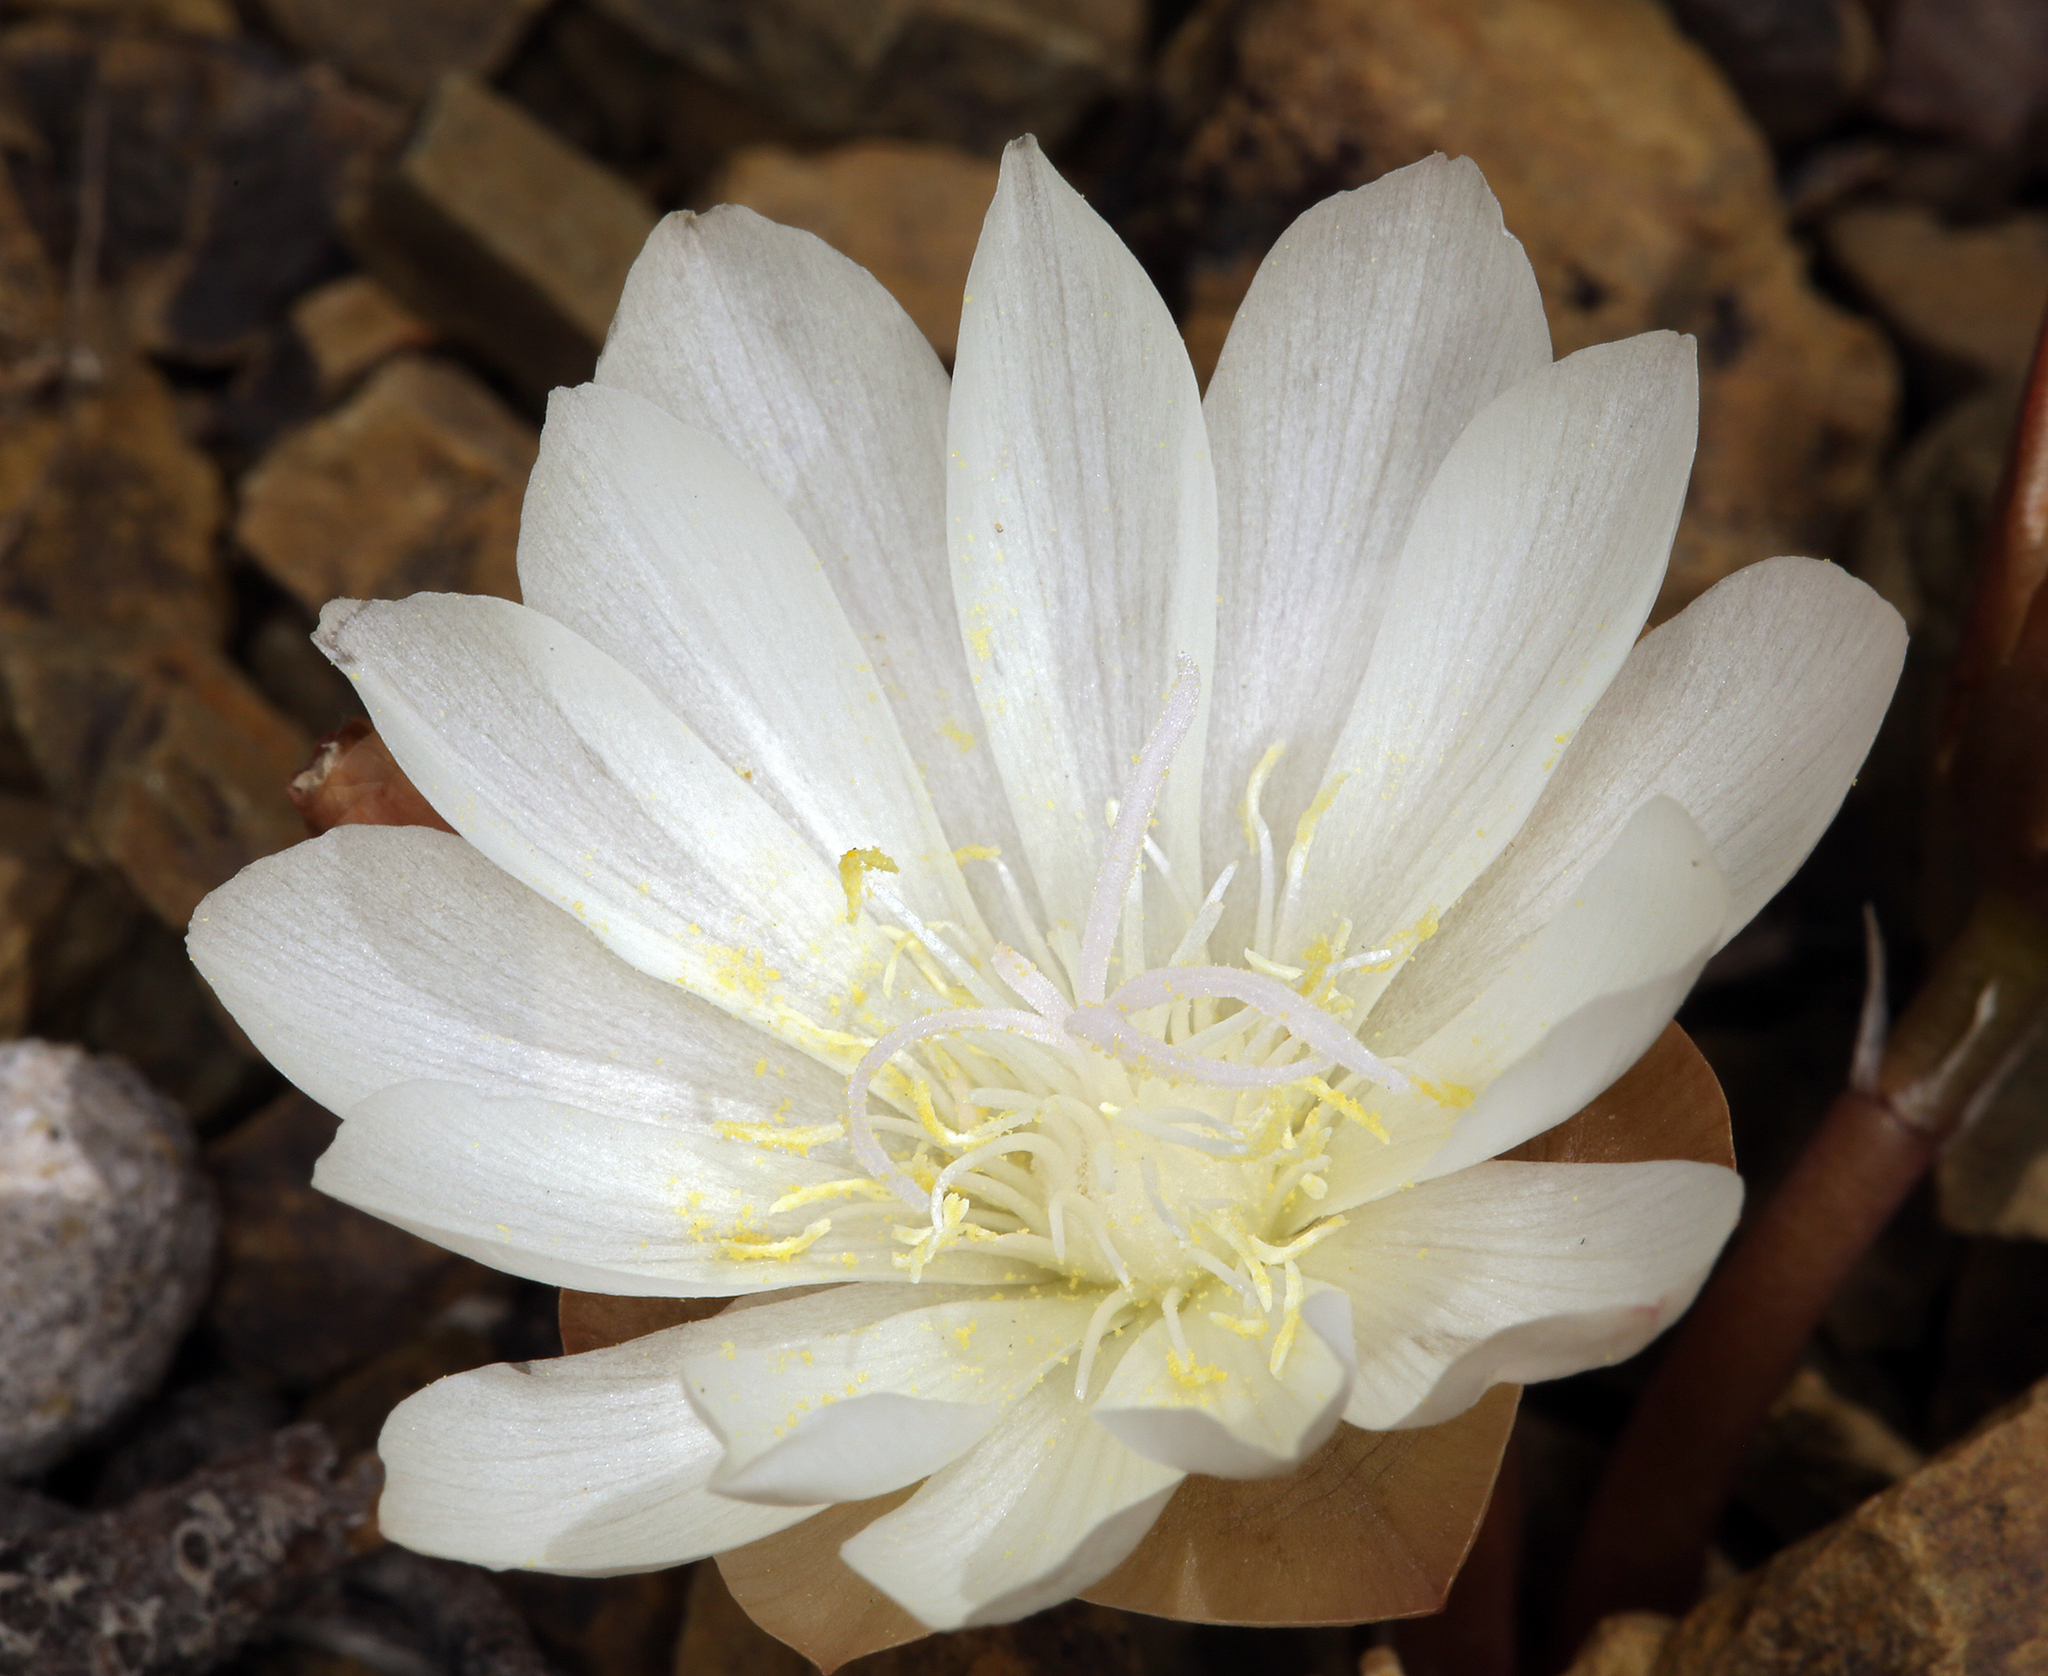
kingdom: Plantae
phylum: Tracheophyta
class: Magnoliopsida
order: Caryophyllales
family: Montiaceae
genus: Lewisia
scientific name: Lewisia rediviva
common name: Bitter-root
